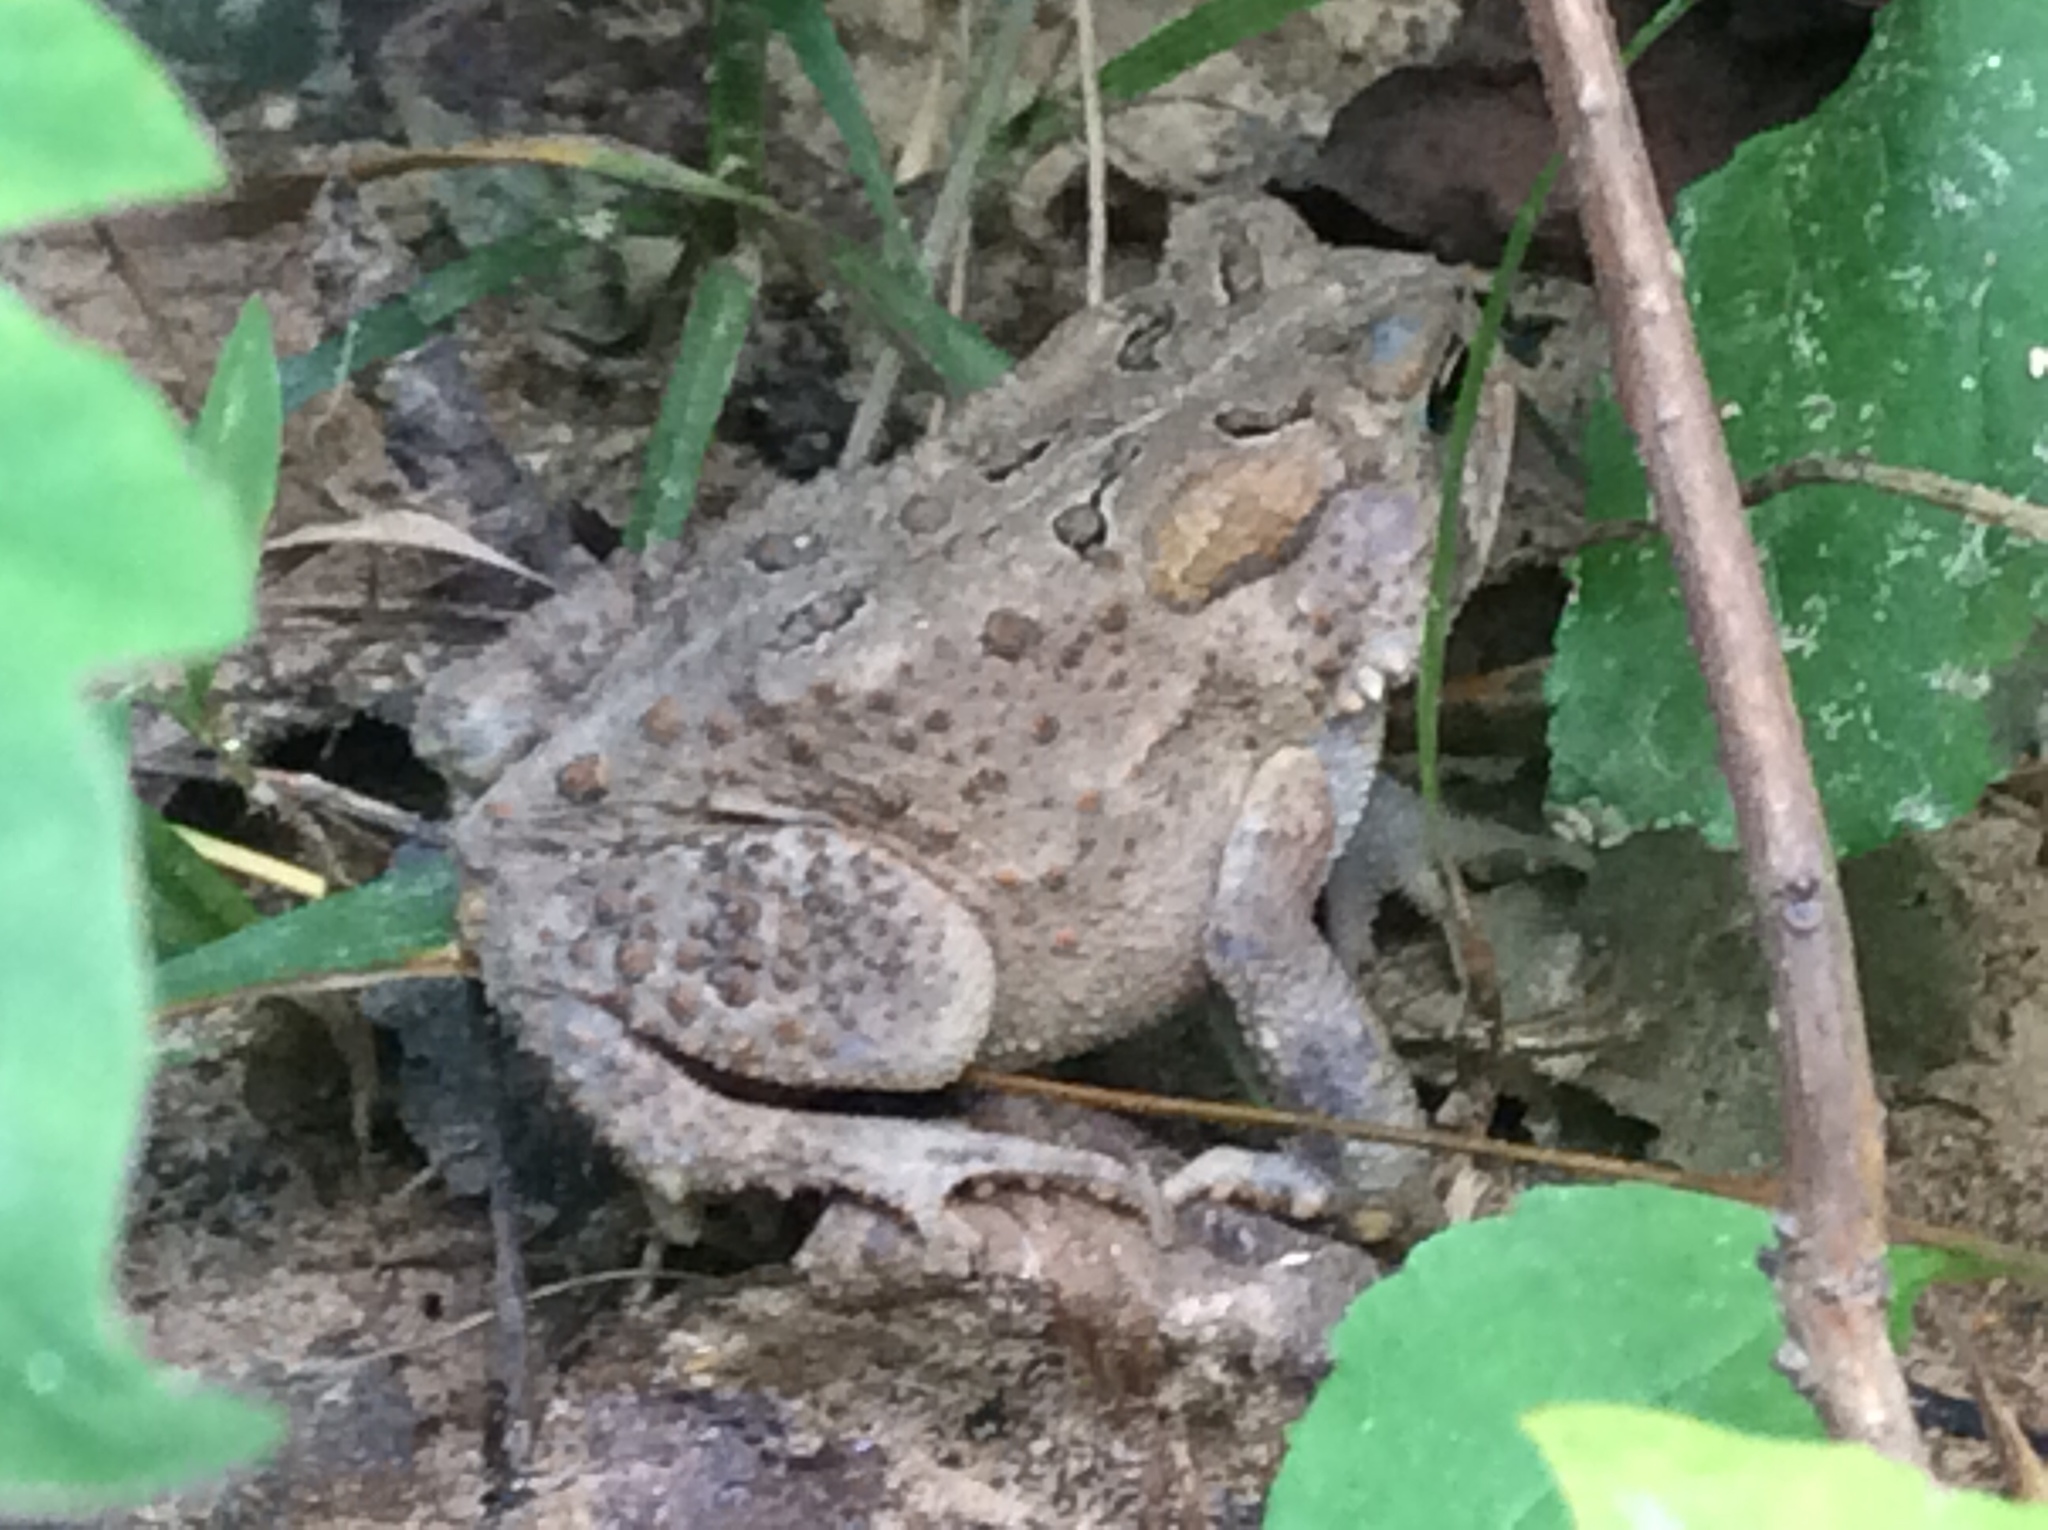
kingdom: Animalia
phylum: Chordata
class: Amphibia
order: Anura
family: Bufonidae
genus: Anaxyrus
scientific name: Anaxyrus americanus
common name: American toad
